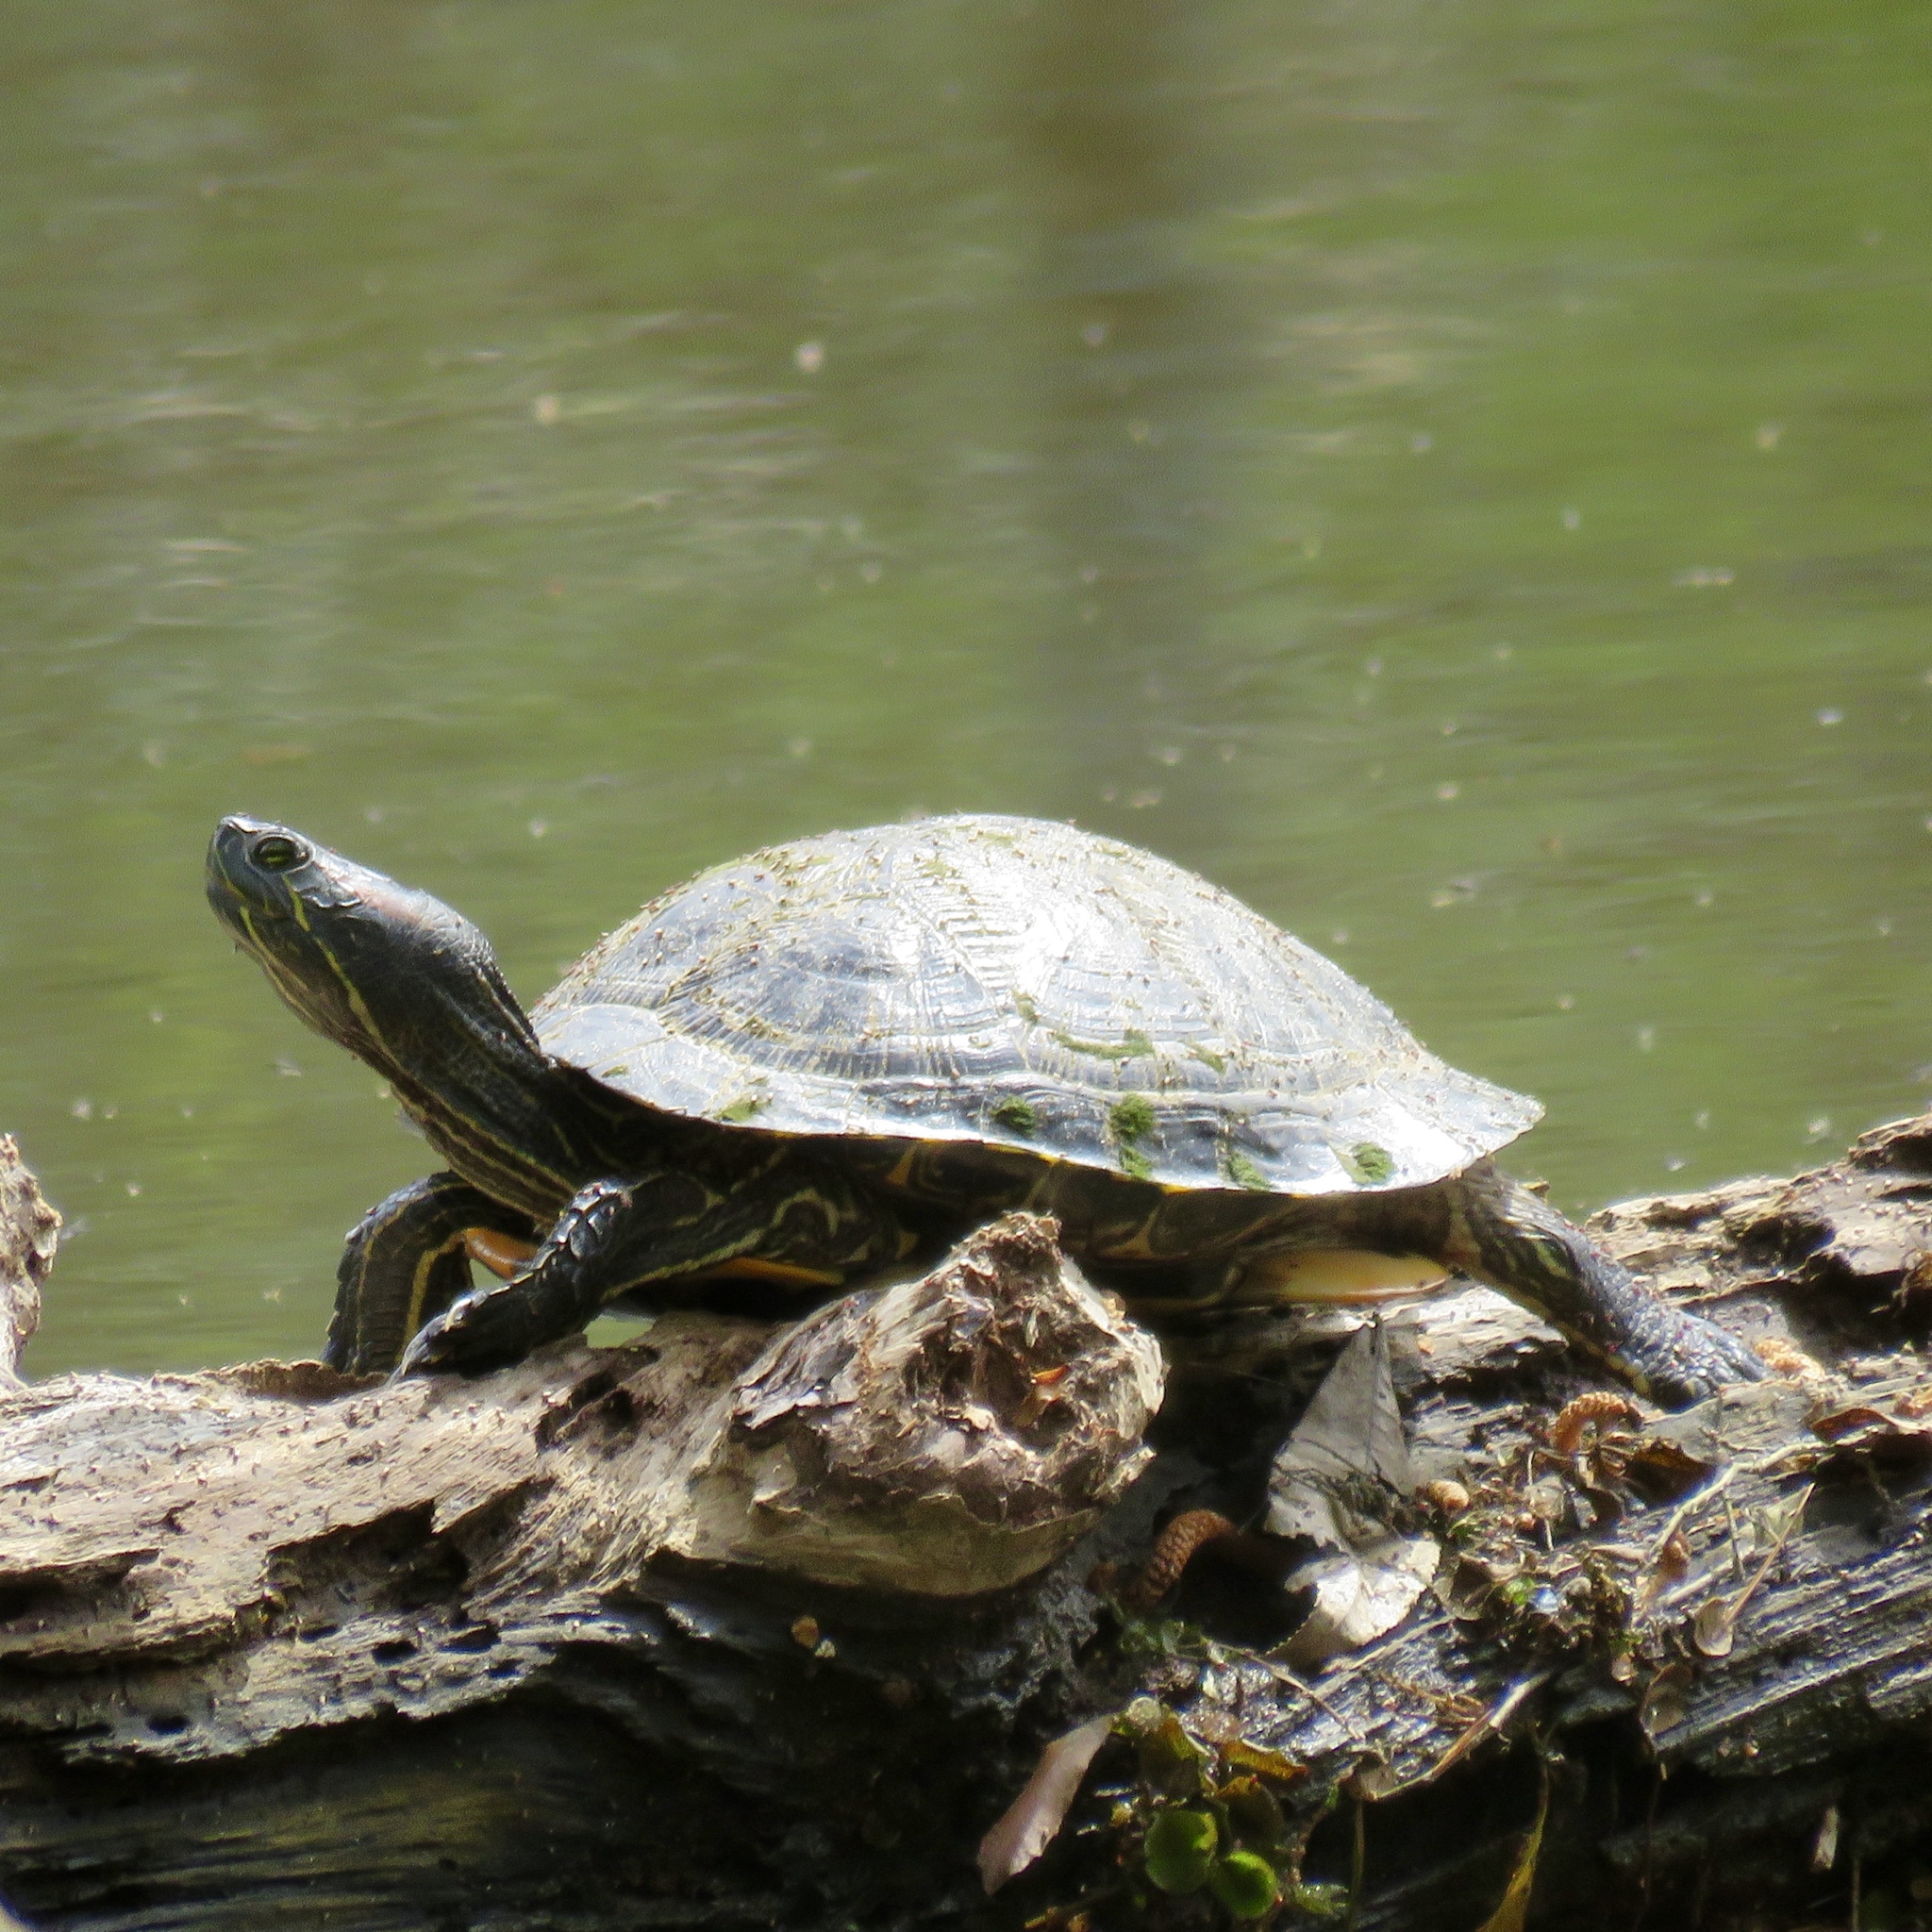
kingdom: Animalia
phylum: Chordata
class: Testudines
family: Emydidae
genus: Trachemys
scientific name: Trachemys scripta
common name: Slider
